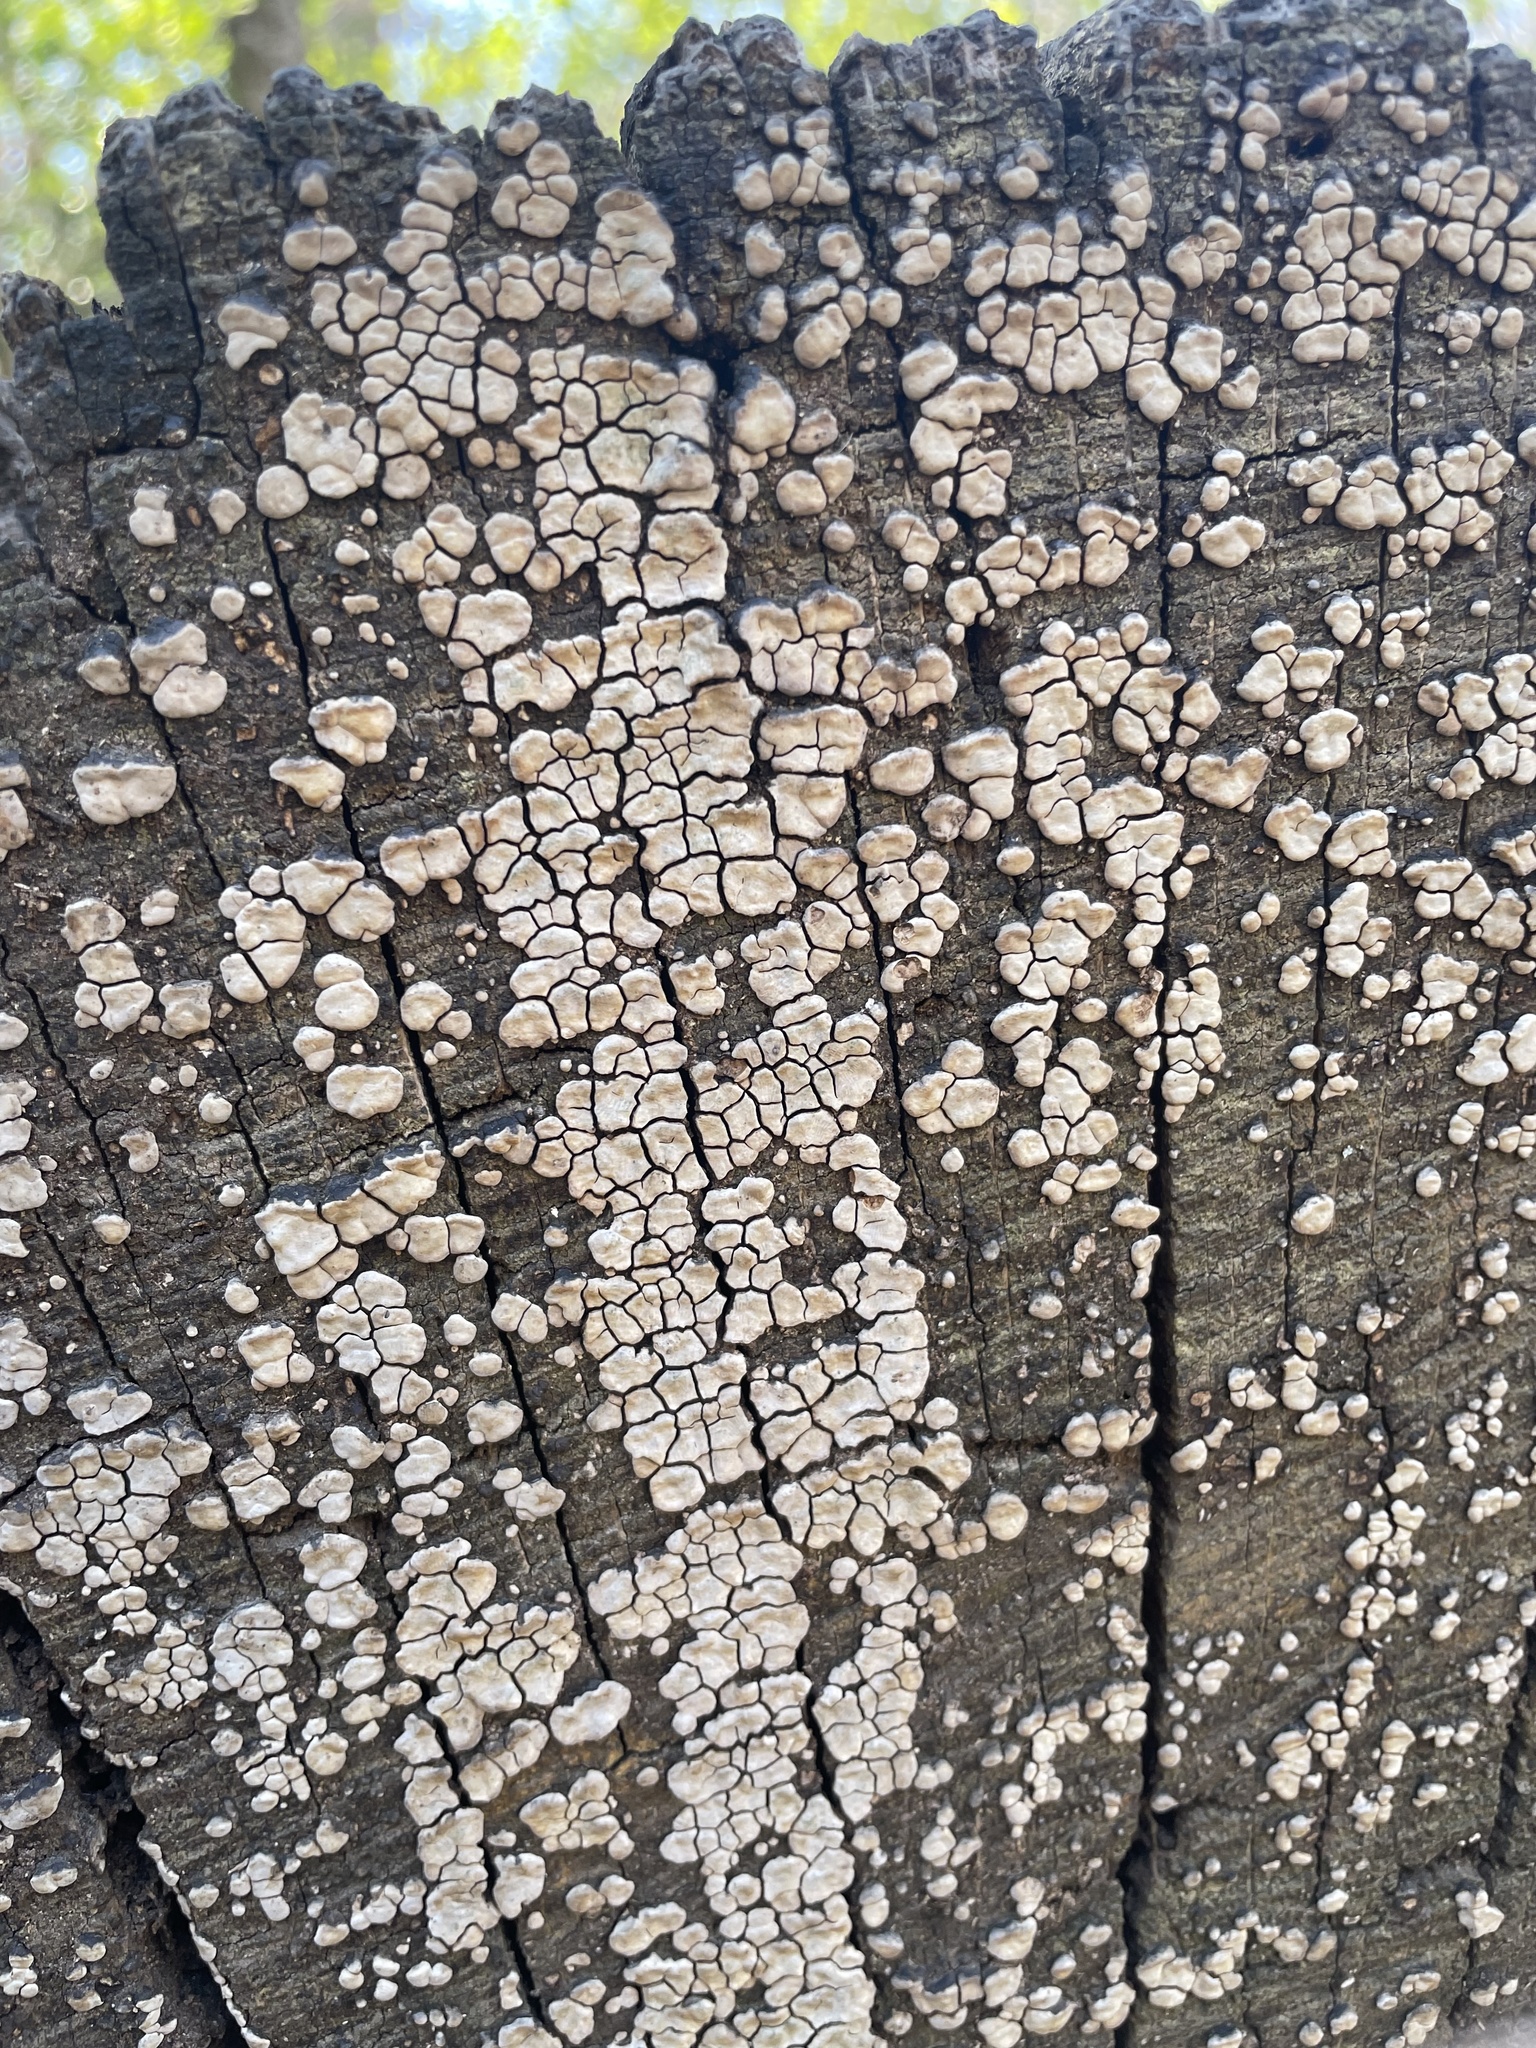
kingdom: Fungi
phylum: Basidiomycota
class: Agaricomycetes
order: Russulales
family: Stereaceae
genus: Xylobolus
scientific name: Xylobolus frustulatus
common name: Ceramic parchment
